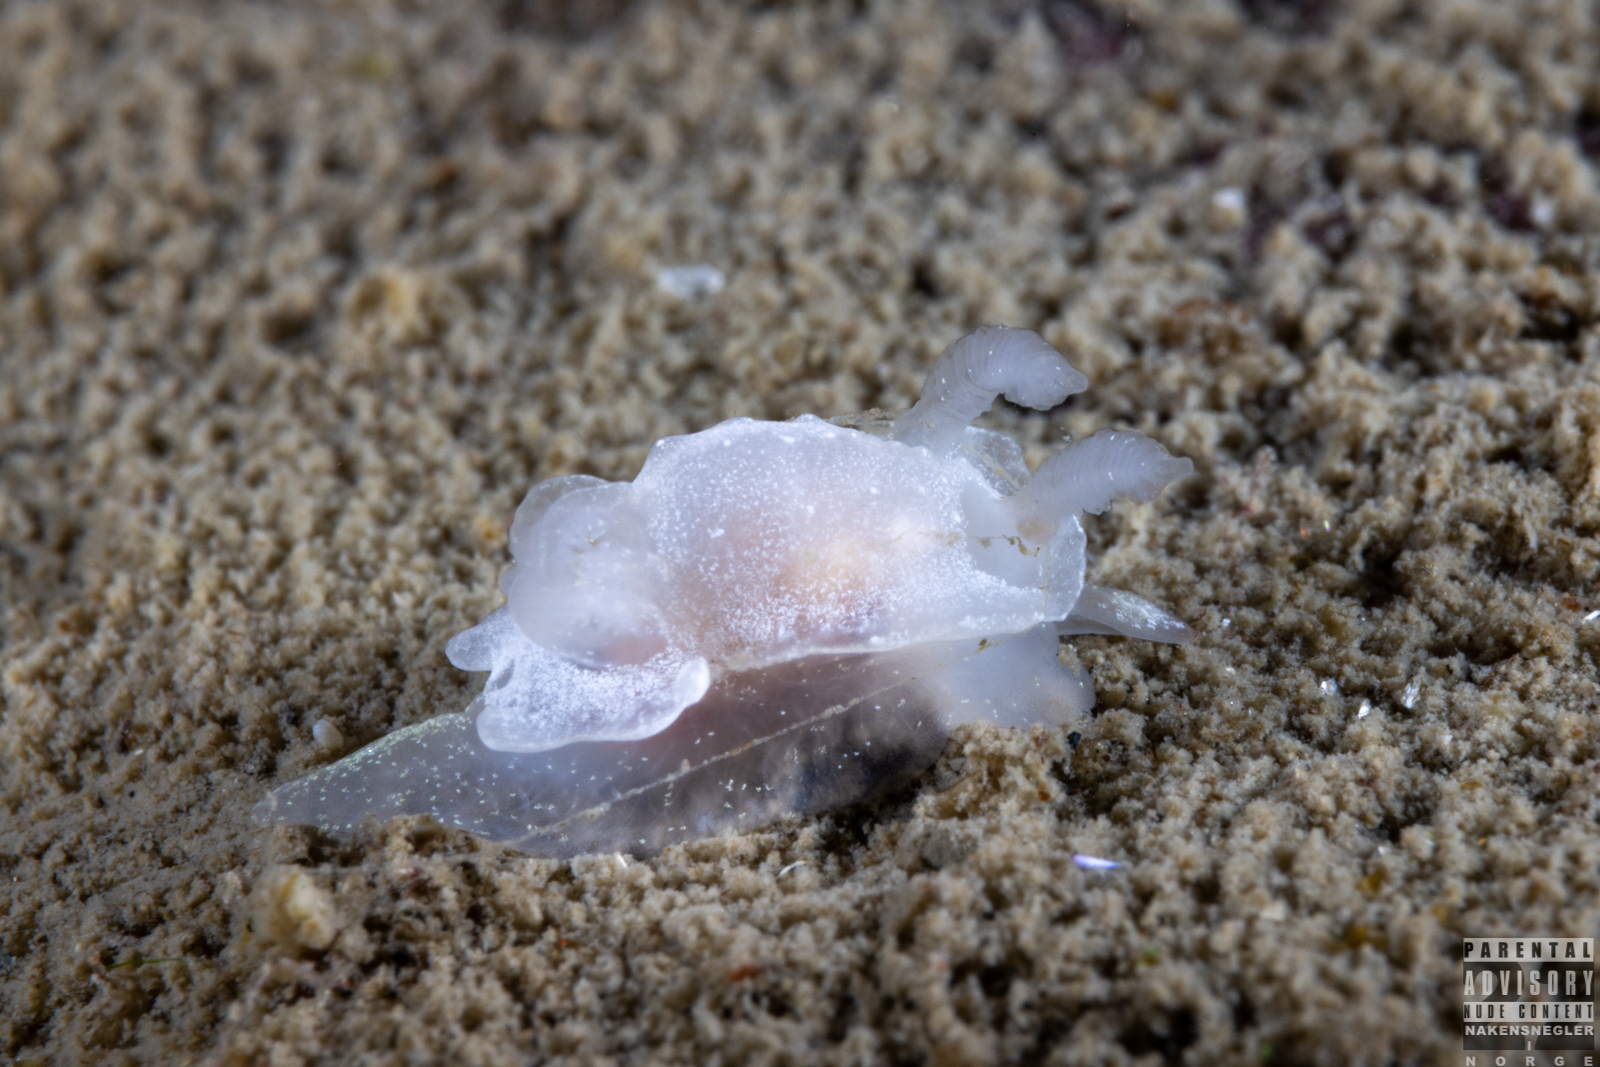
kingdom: Animalia
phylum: Mollusca
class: Gastropoda
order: Nudibranchia
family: Goniodorididae
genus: Okenia
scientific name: Okenia
